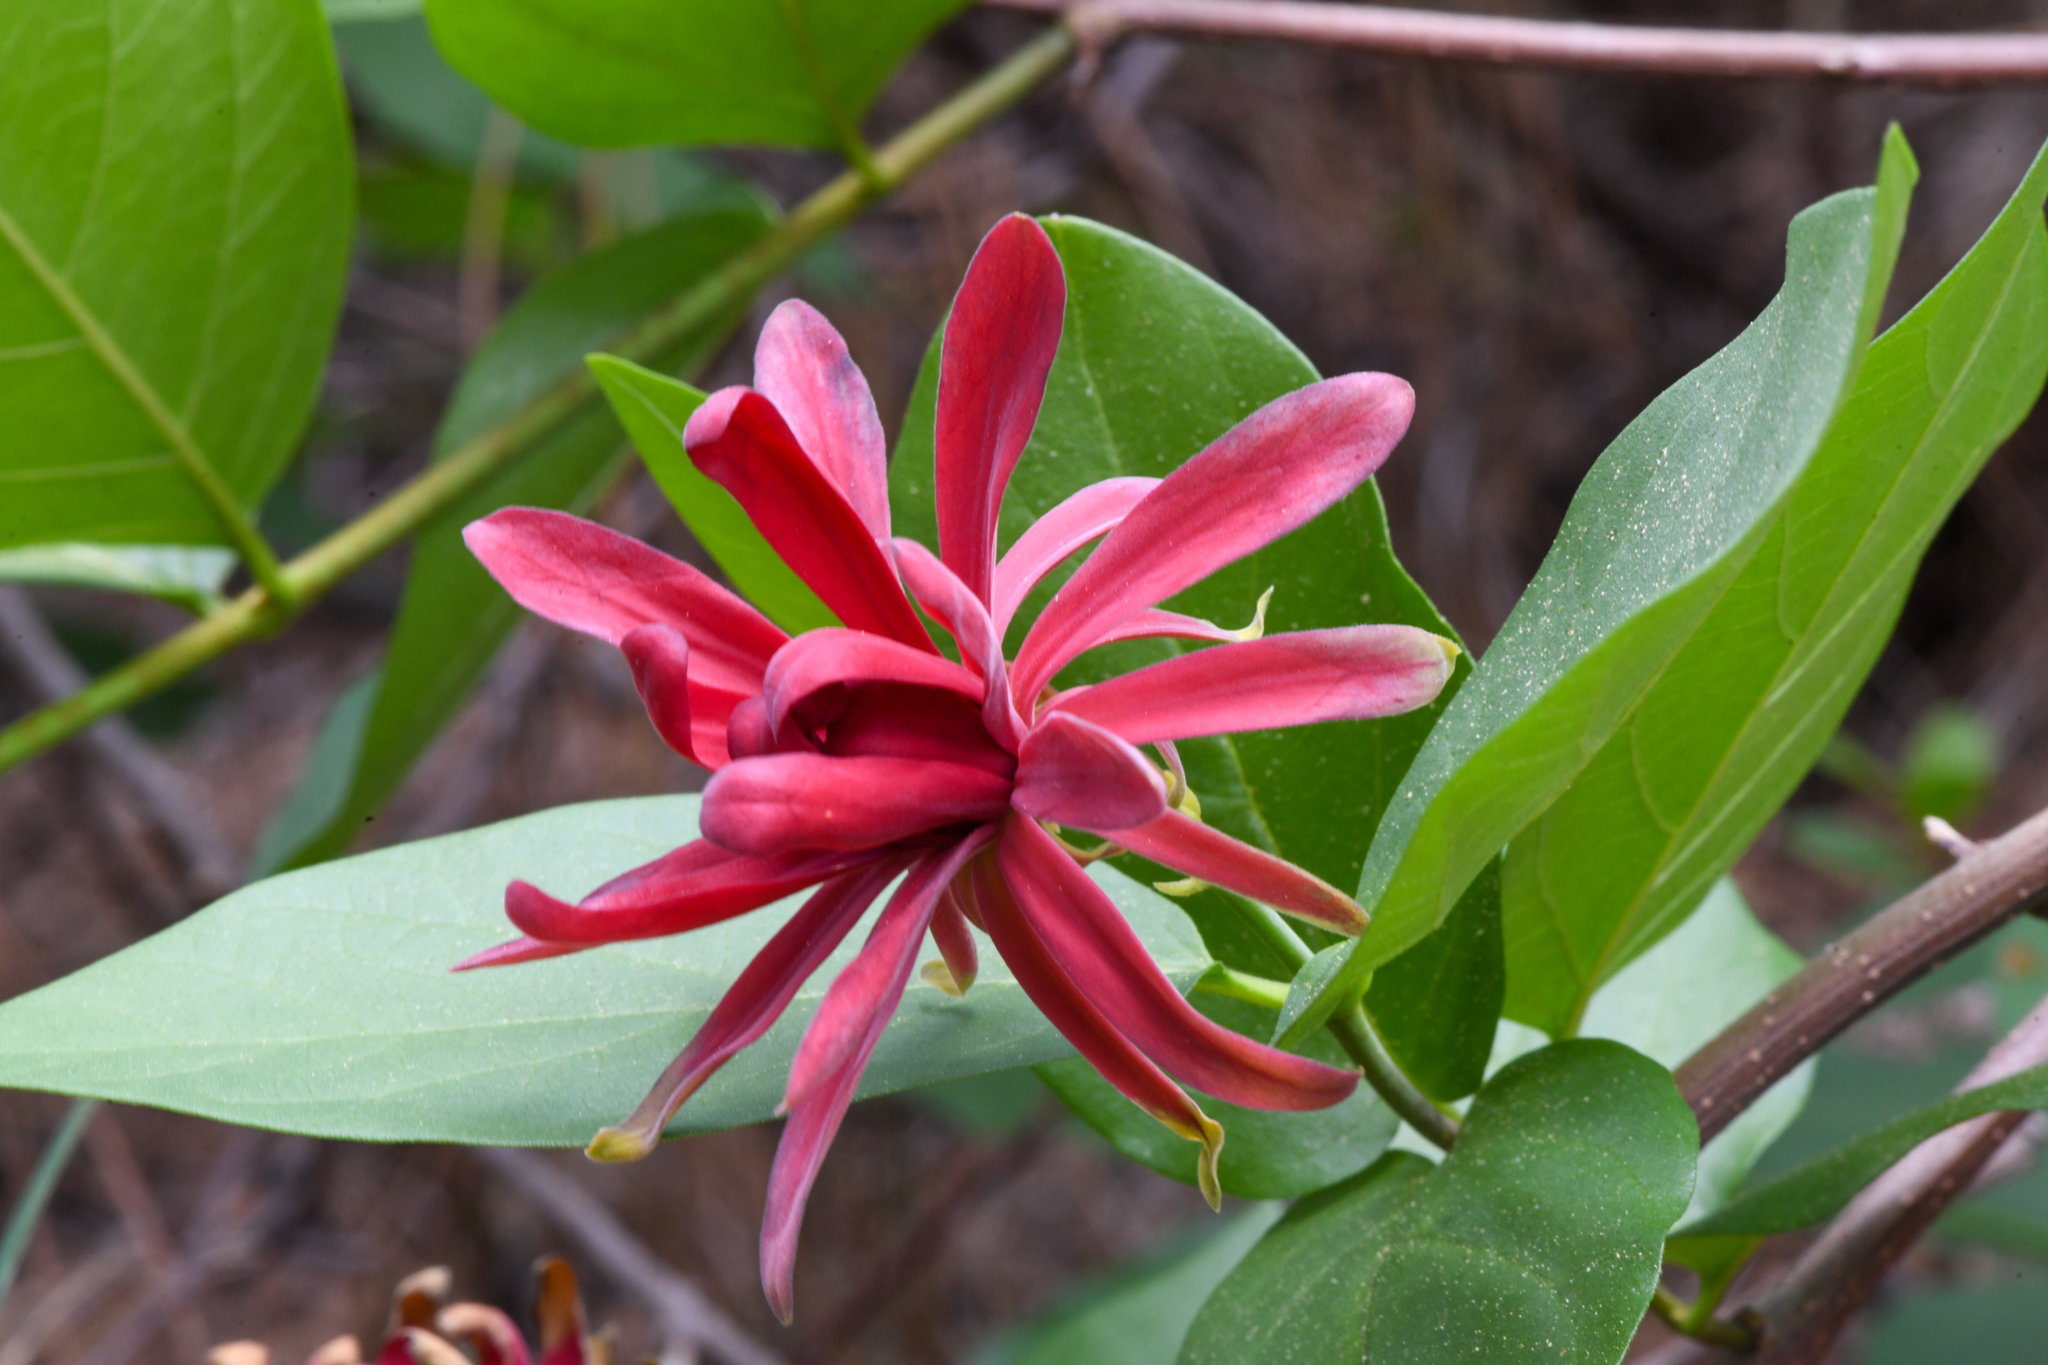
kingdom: Plantae
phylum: Tracheophyta
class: Magnoliopsida
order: Laurales
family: Calycanthaceae
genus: Calycanthus
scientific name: Calycanthus occidentalis
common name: California spicebush
